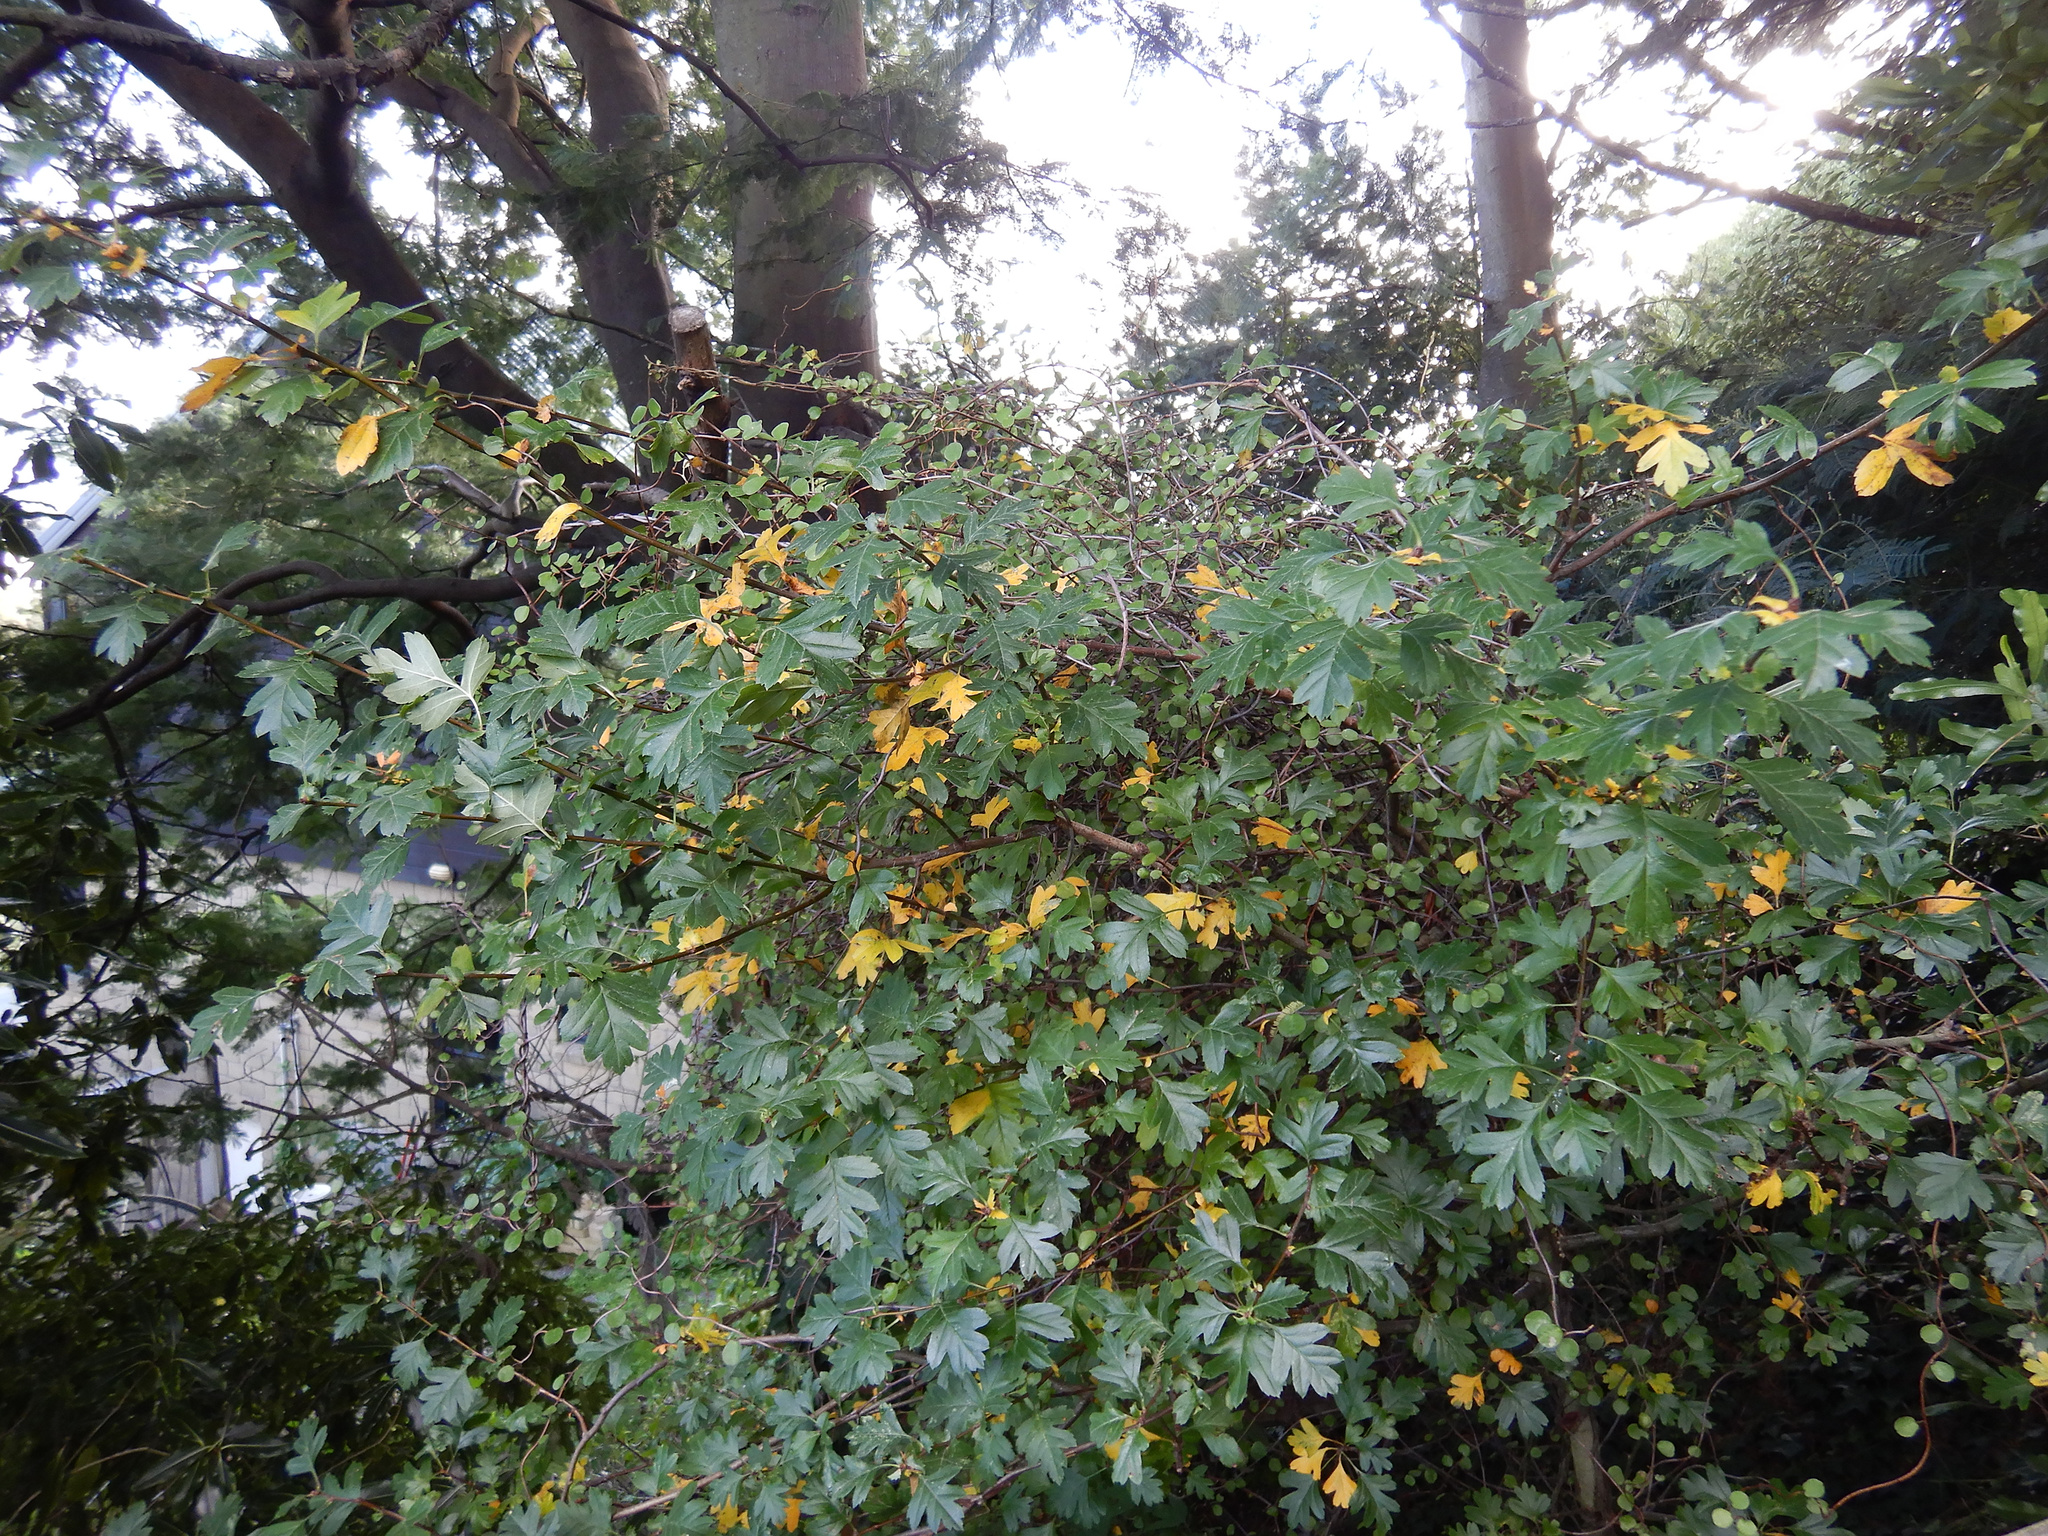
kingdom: Plantae
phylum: Tracheophyta
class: Magnoliopsida
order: Rosales
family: Rosaceae
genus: Crataegus
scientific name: Crataegus monogyna
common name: Hawthorn
